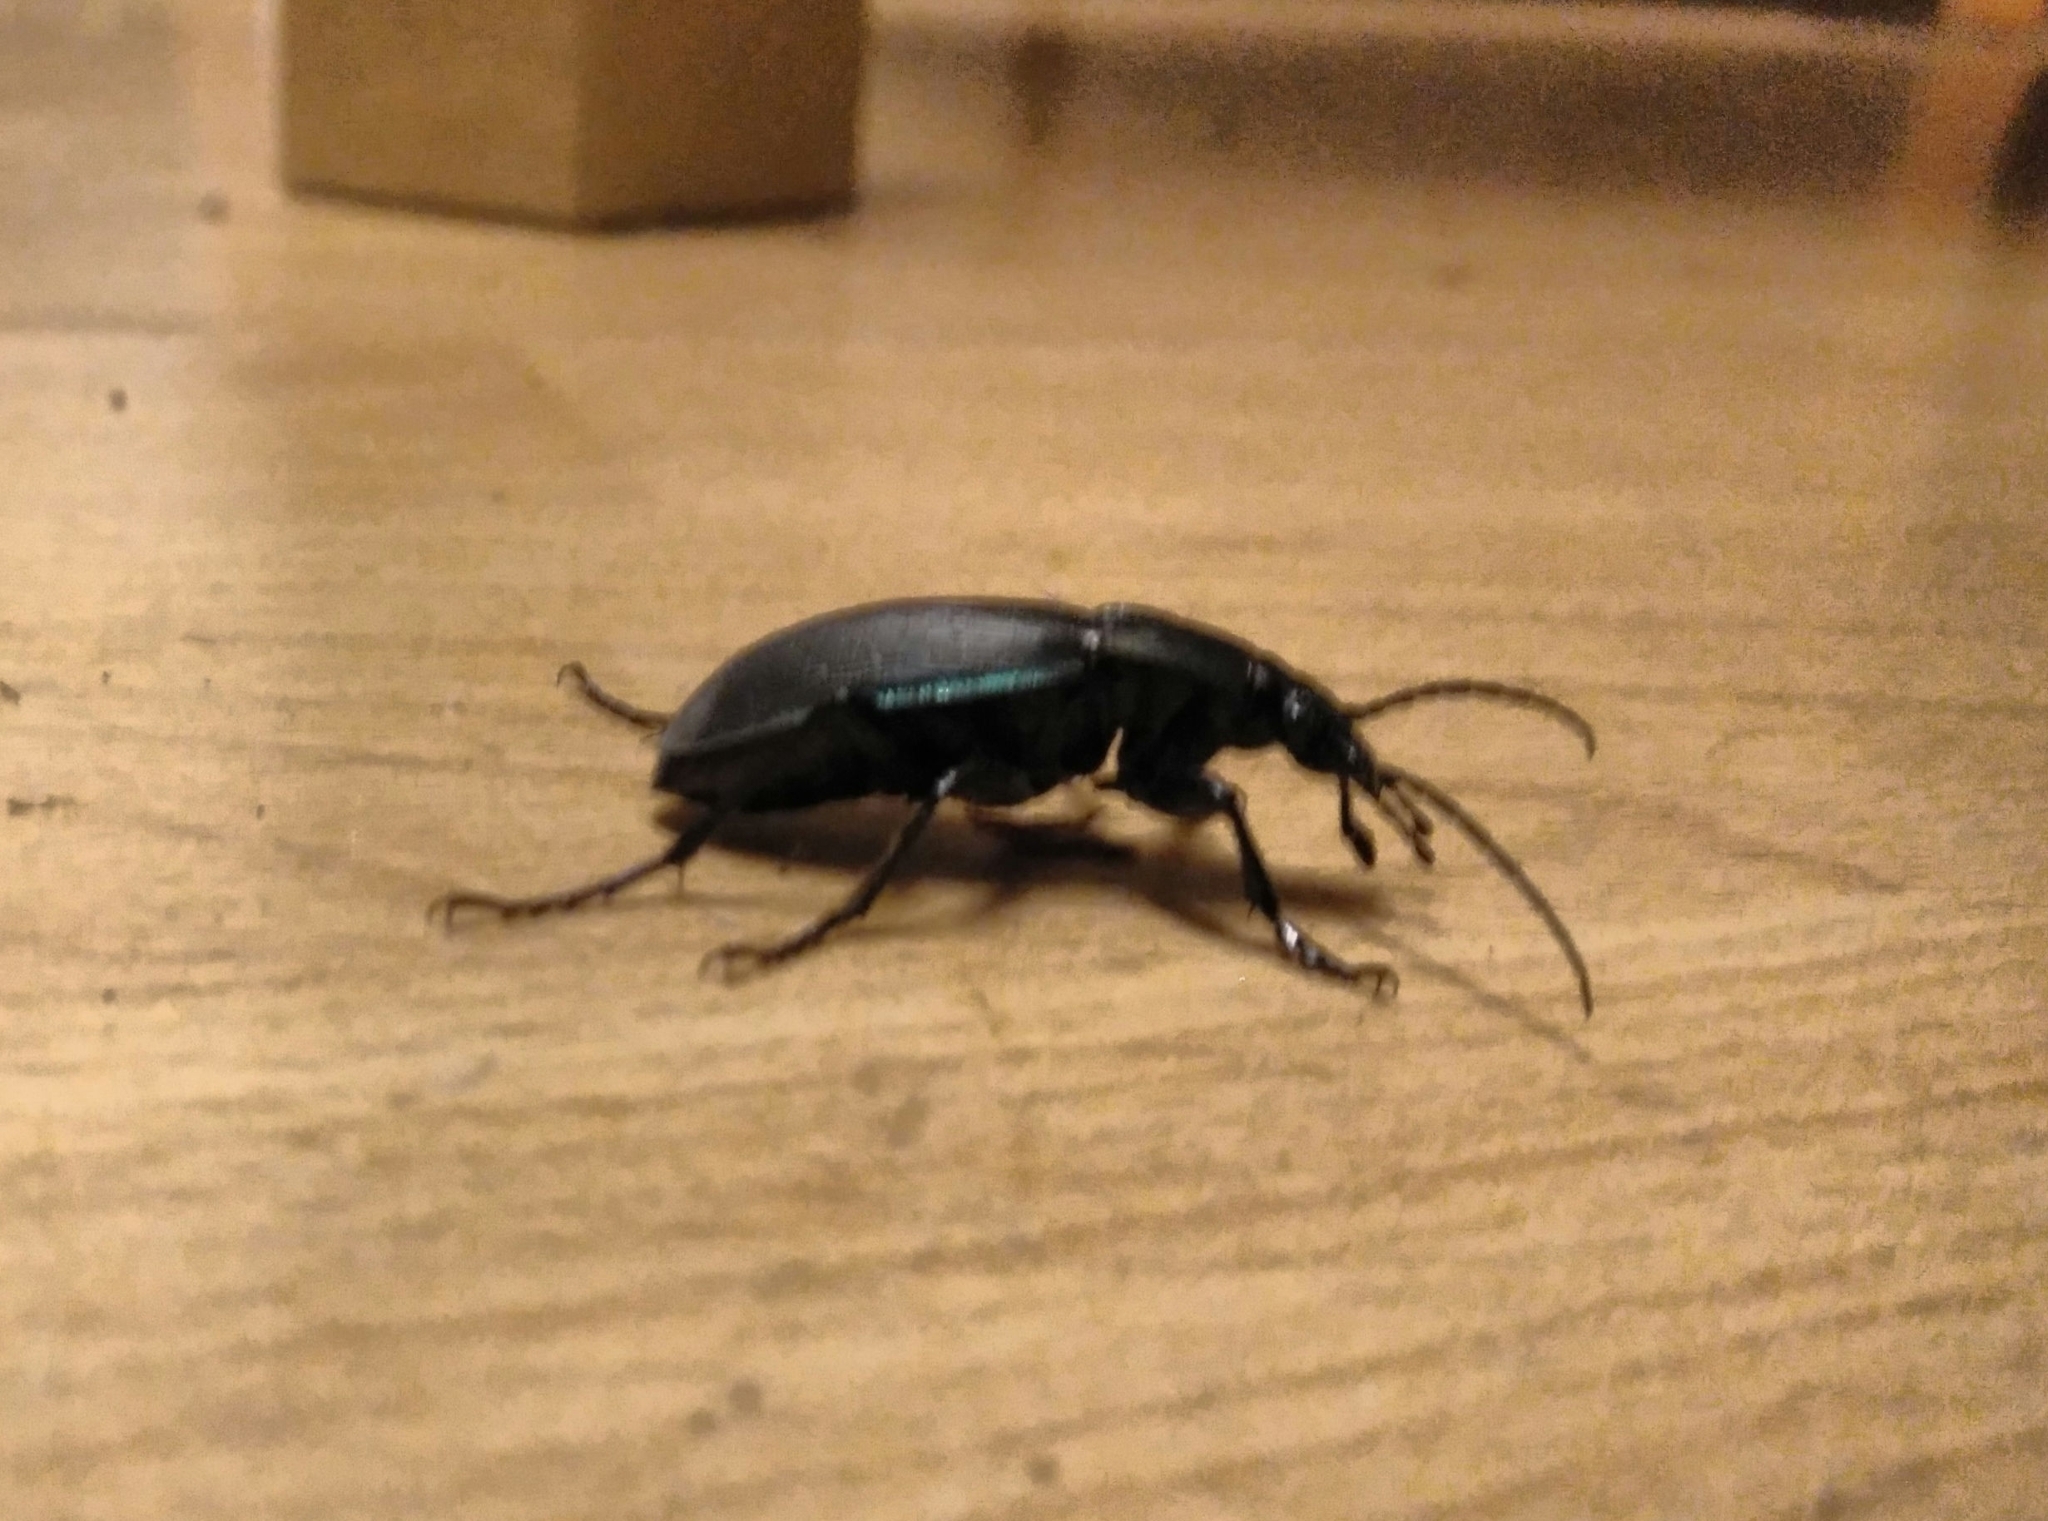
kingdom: Animalia
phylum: Arthropoda
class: Insecta
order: Coleoptera
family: Carabidae
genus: Carabus
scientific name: Carabus purpurascens
